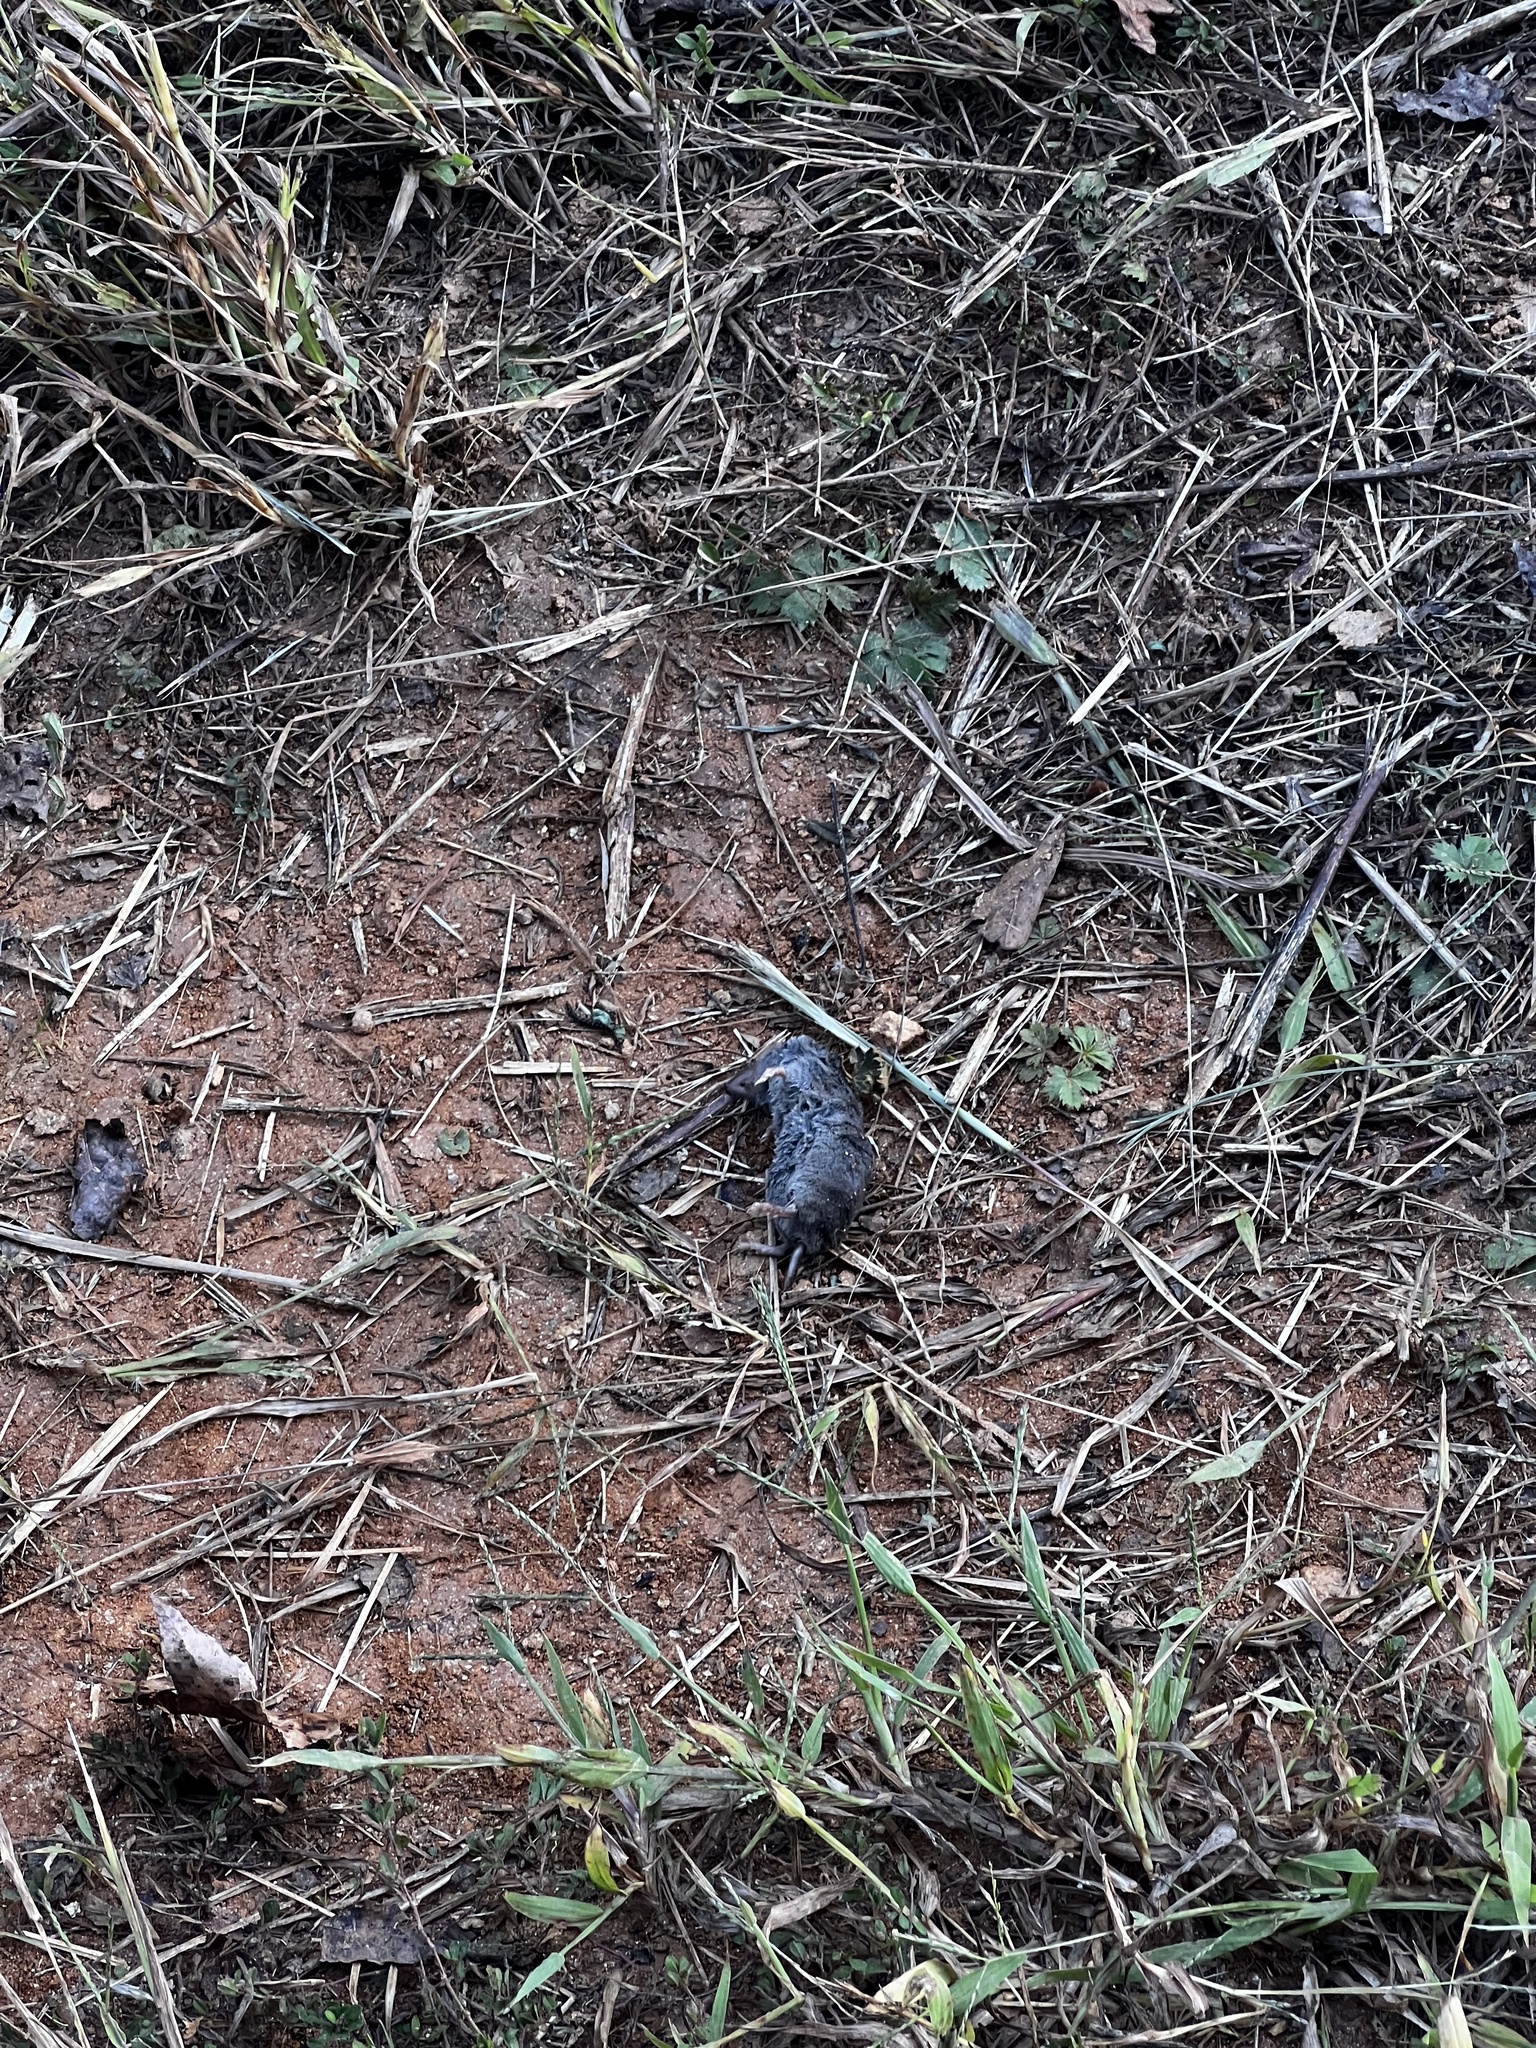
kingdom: Animalia
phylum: Chordata
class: Mammalia
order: Soricomorpha
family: Soricidae
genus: Blarina
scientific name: Blarina carolinensis
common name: Southern short-tailed shrew
